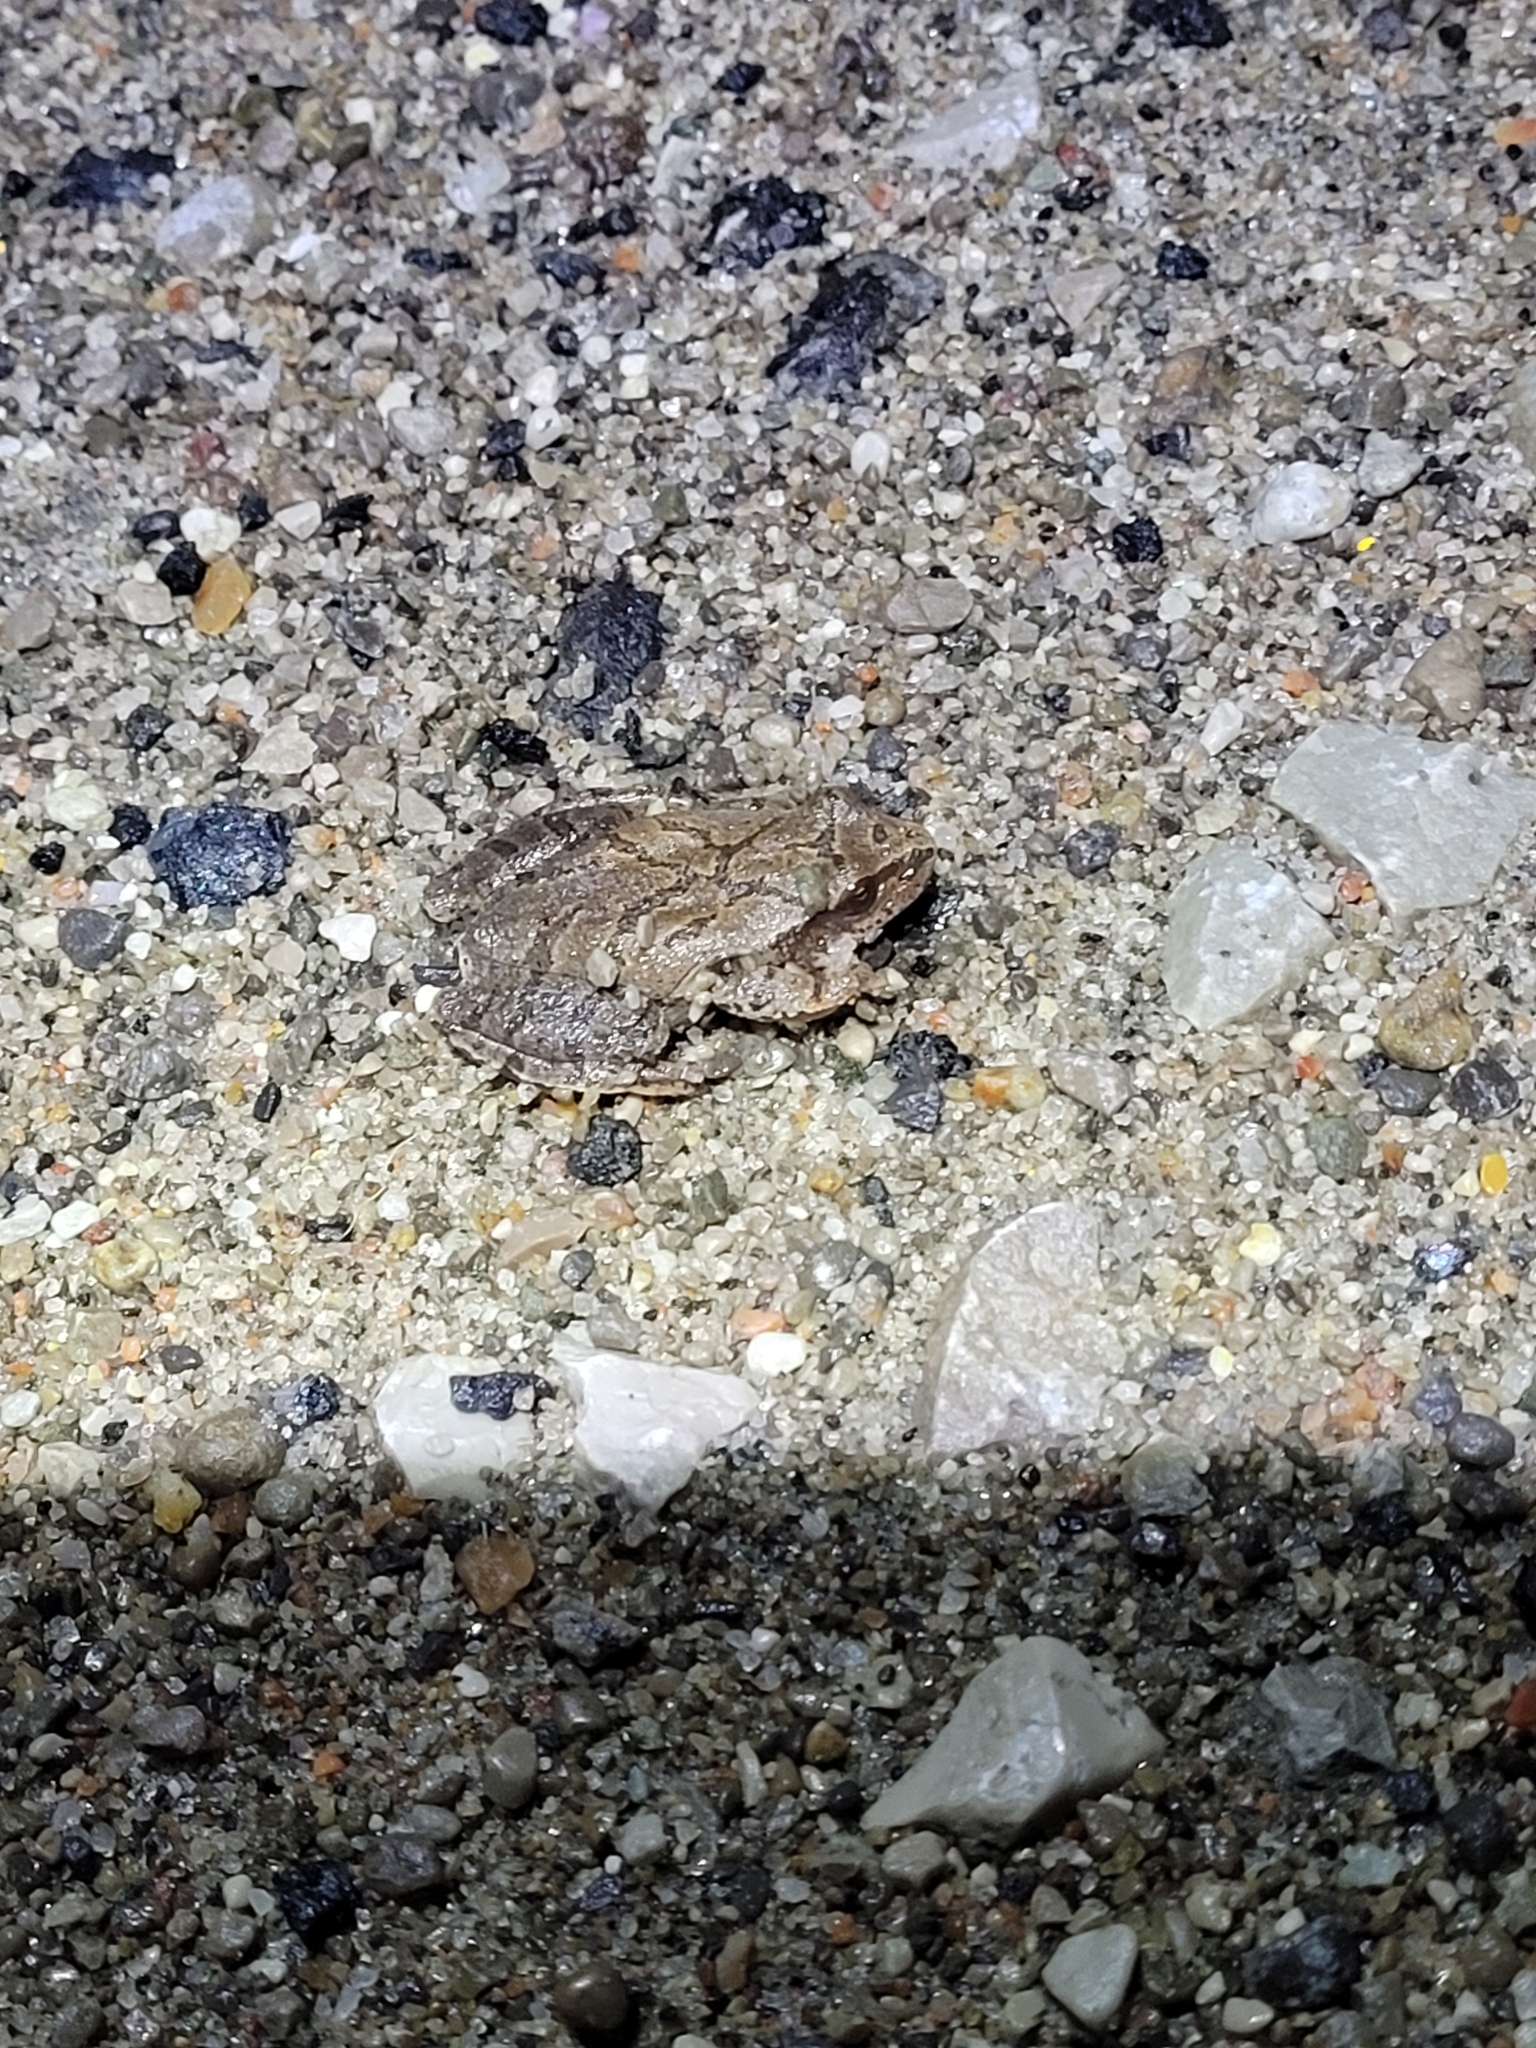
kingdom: Animalia
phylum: Chordata
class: Amphibia
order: Anura
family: Hylidae
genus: Pseudacris
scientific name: Pseudacris crucifer
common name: Spring peeper
